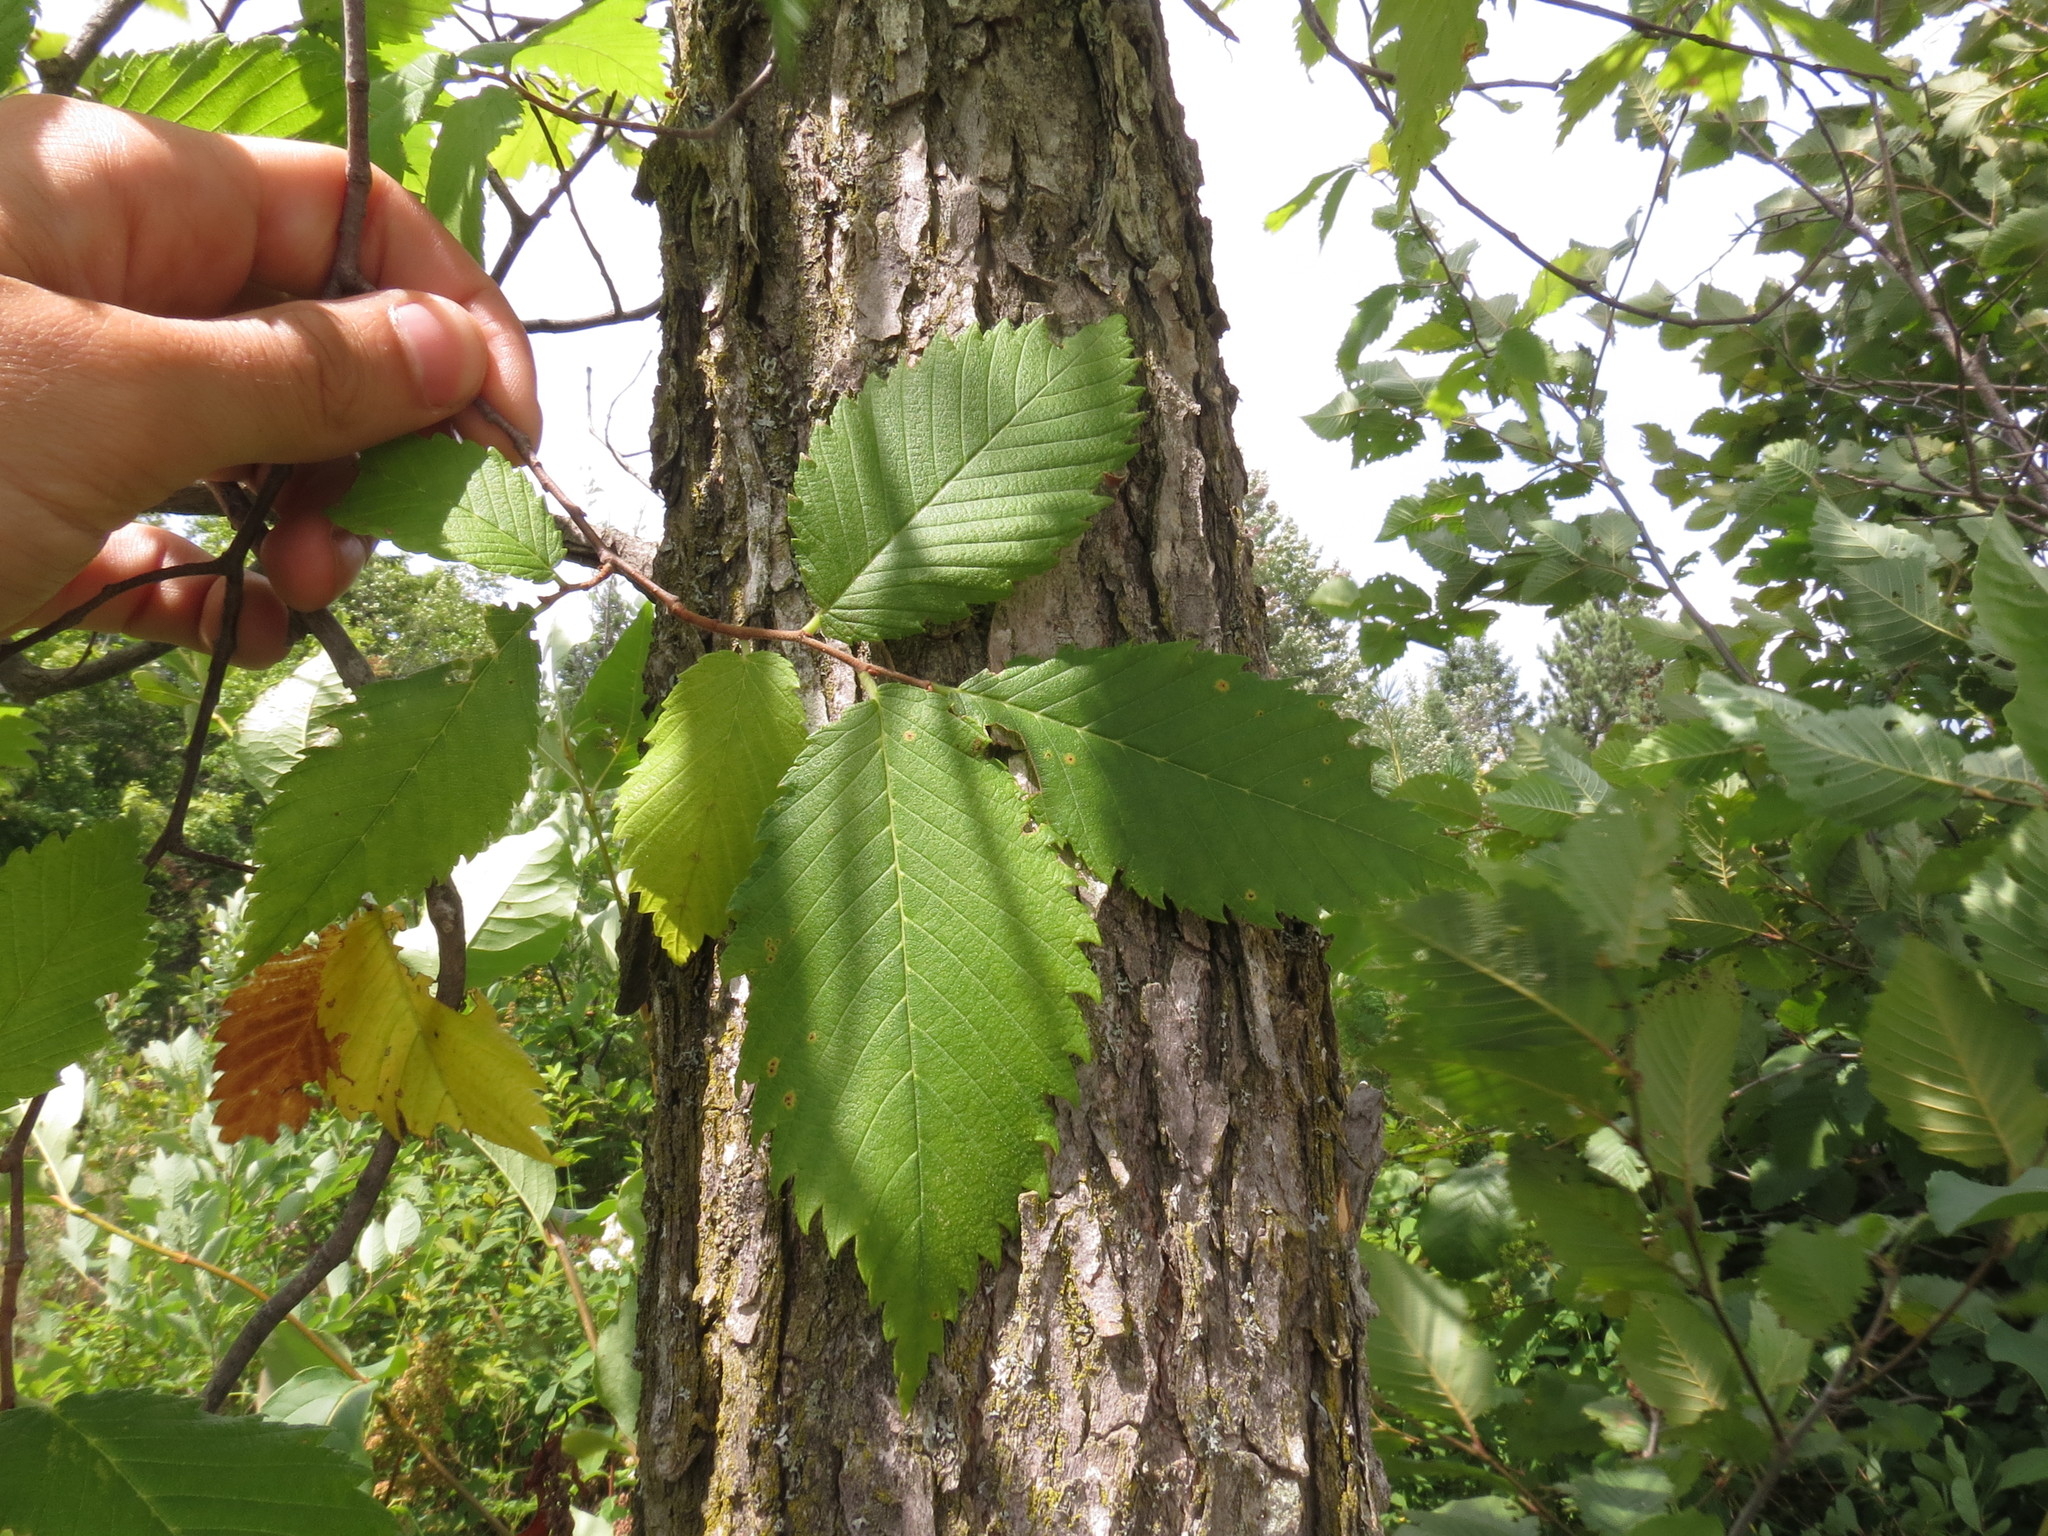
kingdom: Plantae
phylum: Tracheophyta
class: Magnoliopsida
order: Rosales
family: Ulmaceae
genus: Ulmus
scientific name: Ulmus americana
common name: American elm
